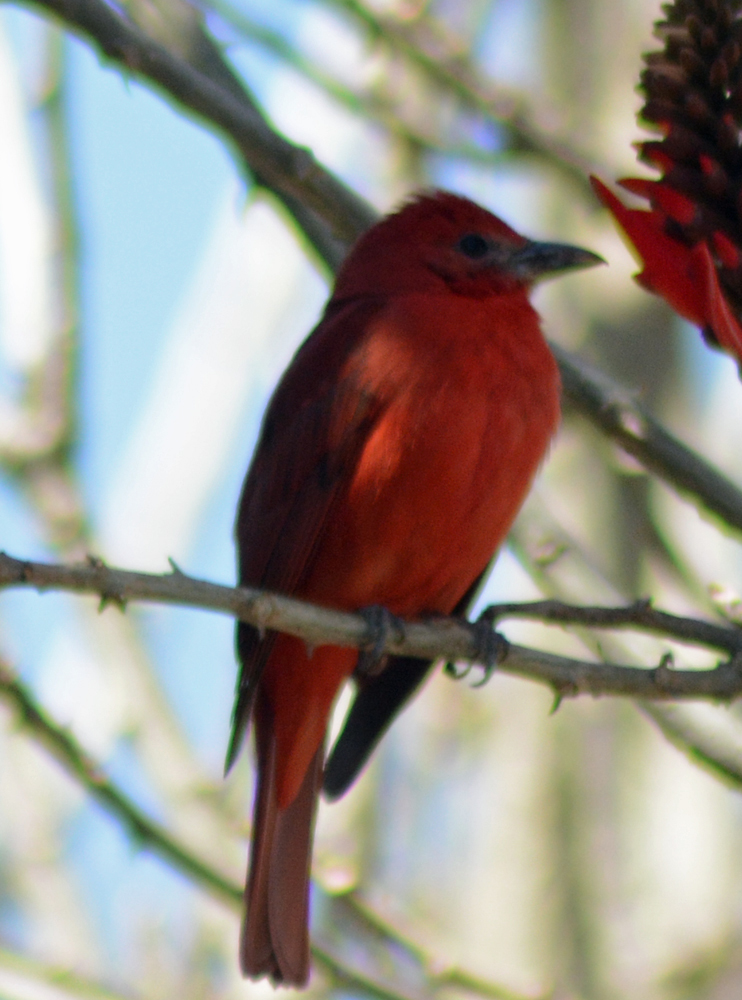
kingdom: Animalia
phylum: Chordata
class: Aves
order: Passeriformes
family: Cardinalidae
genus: Piranga
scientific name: Piranga flava
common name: Red tanager
